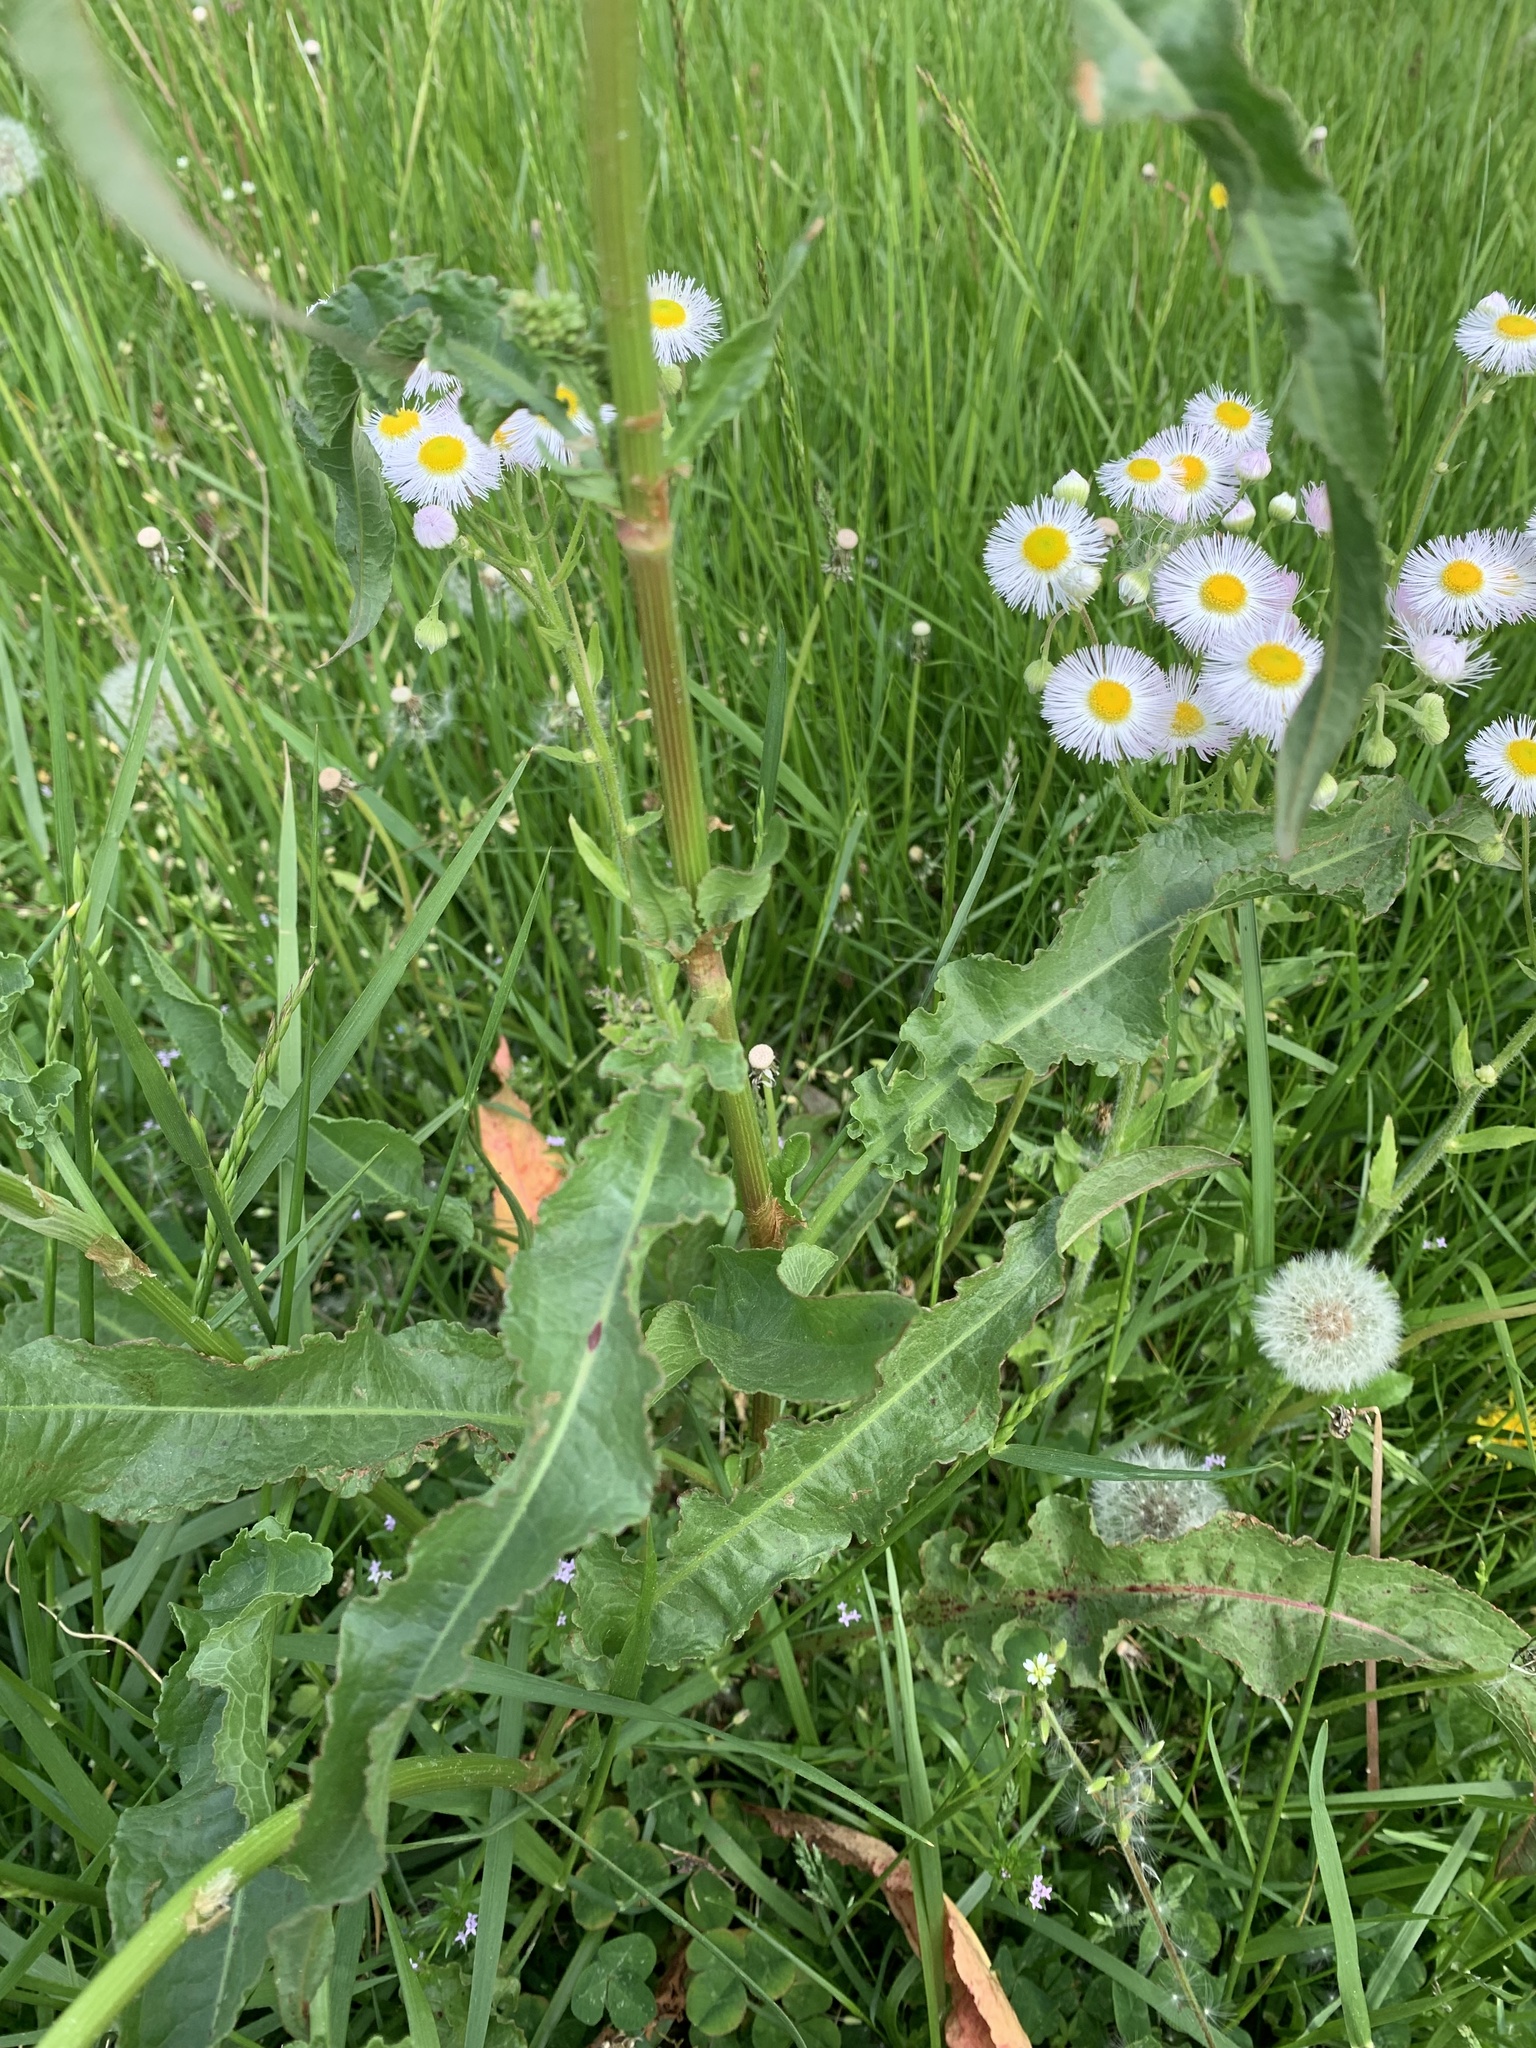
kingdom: Plantae
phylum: Tracheophyta
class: Magnoliopsida
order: Caryophyllales
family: Polygonaceae
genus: Rumex
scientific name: Rumex crispus
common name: Curled dock
